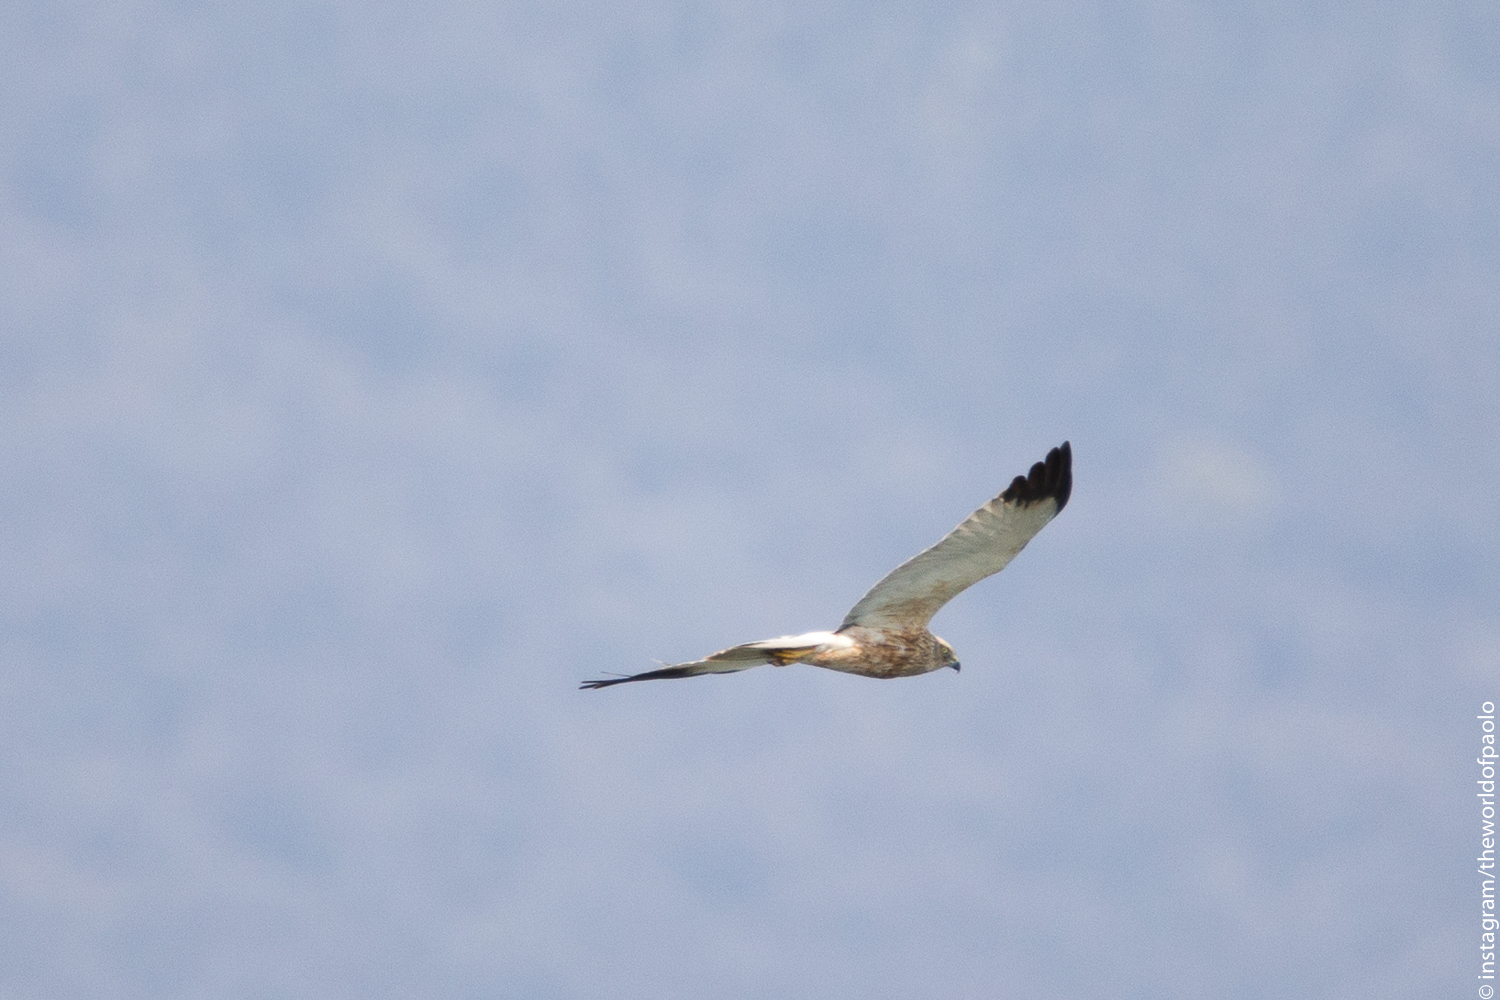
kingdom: Animalia
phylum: Chordata
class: Aves
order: Accipitriformes
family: Accipitridae
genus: Circus
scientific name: Circus aeruginosus
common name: Western marsh harrier
